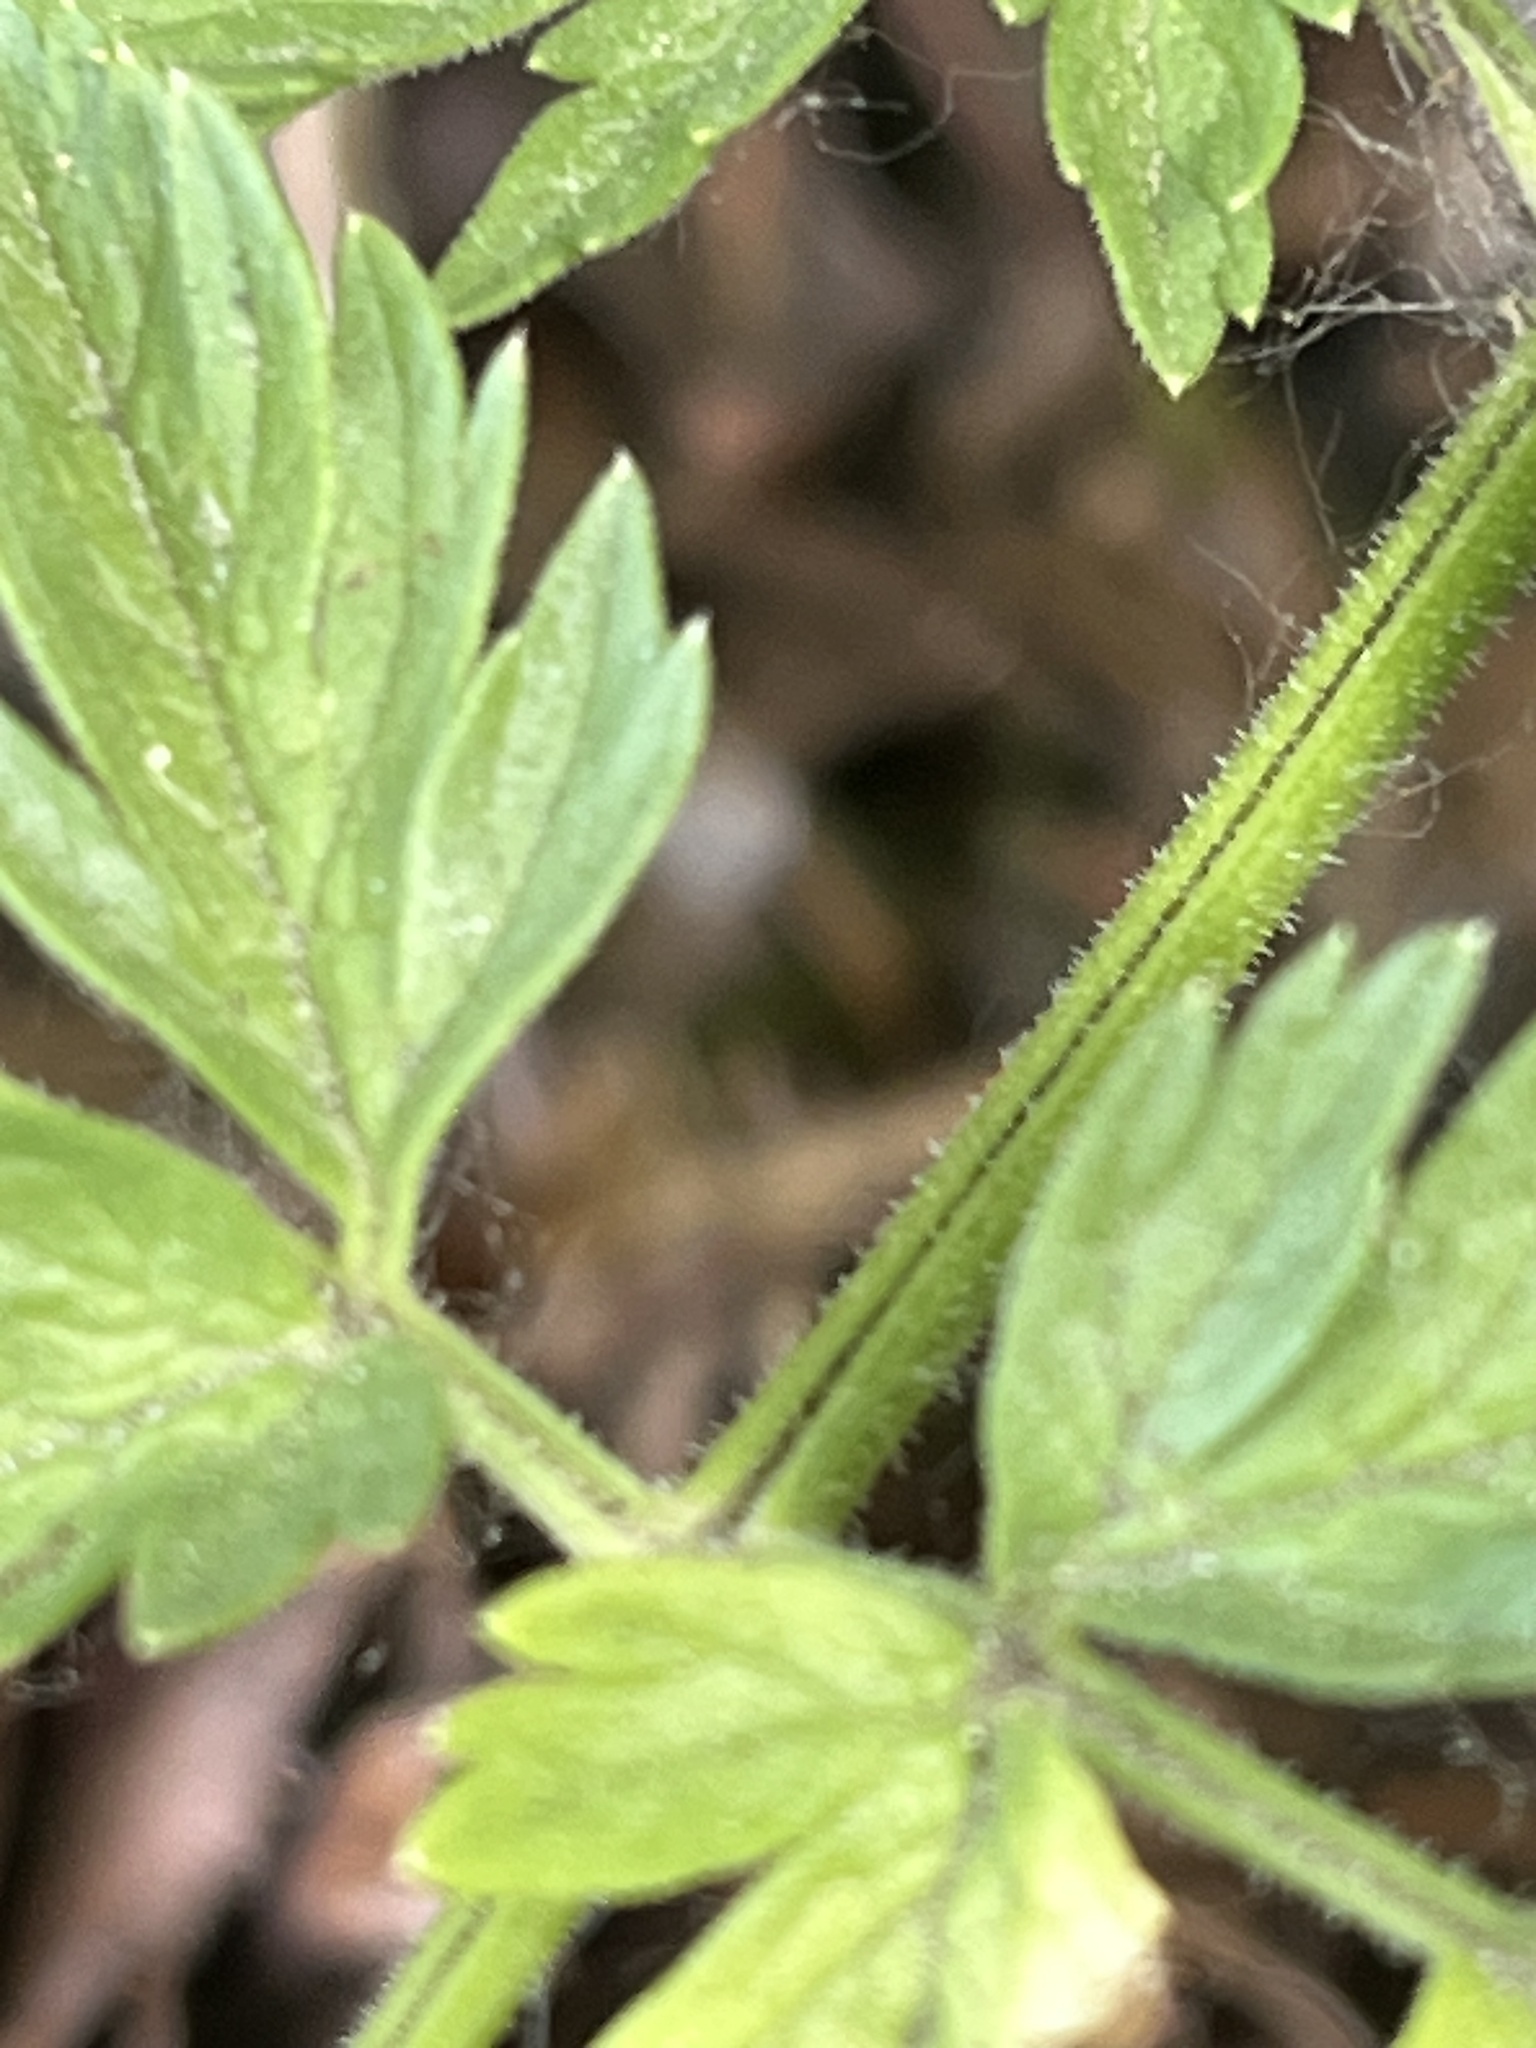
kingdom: Plantae
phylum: Tracheophyta
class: Magnoliopsida
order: Apiales
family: Apiaceae
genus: Anthriscus
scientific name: Anthriscus sylvestris
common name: Cow parsley
